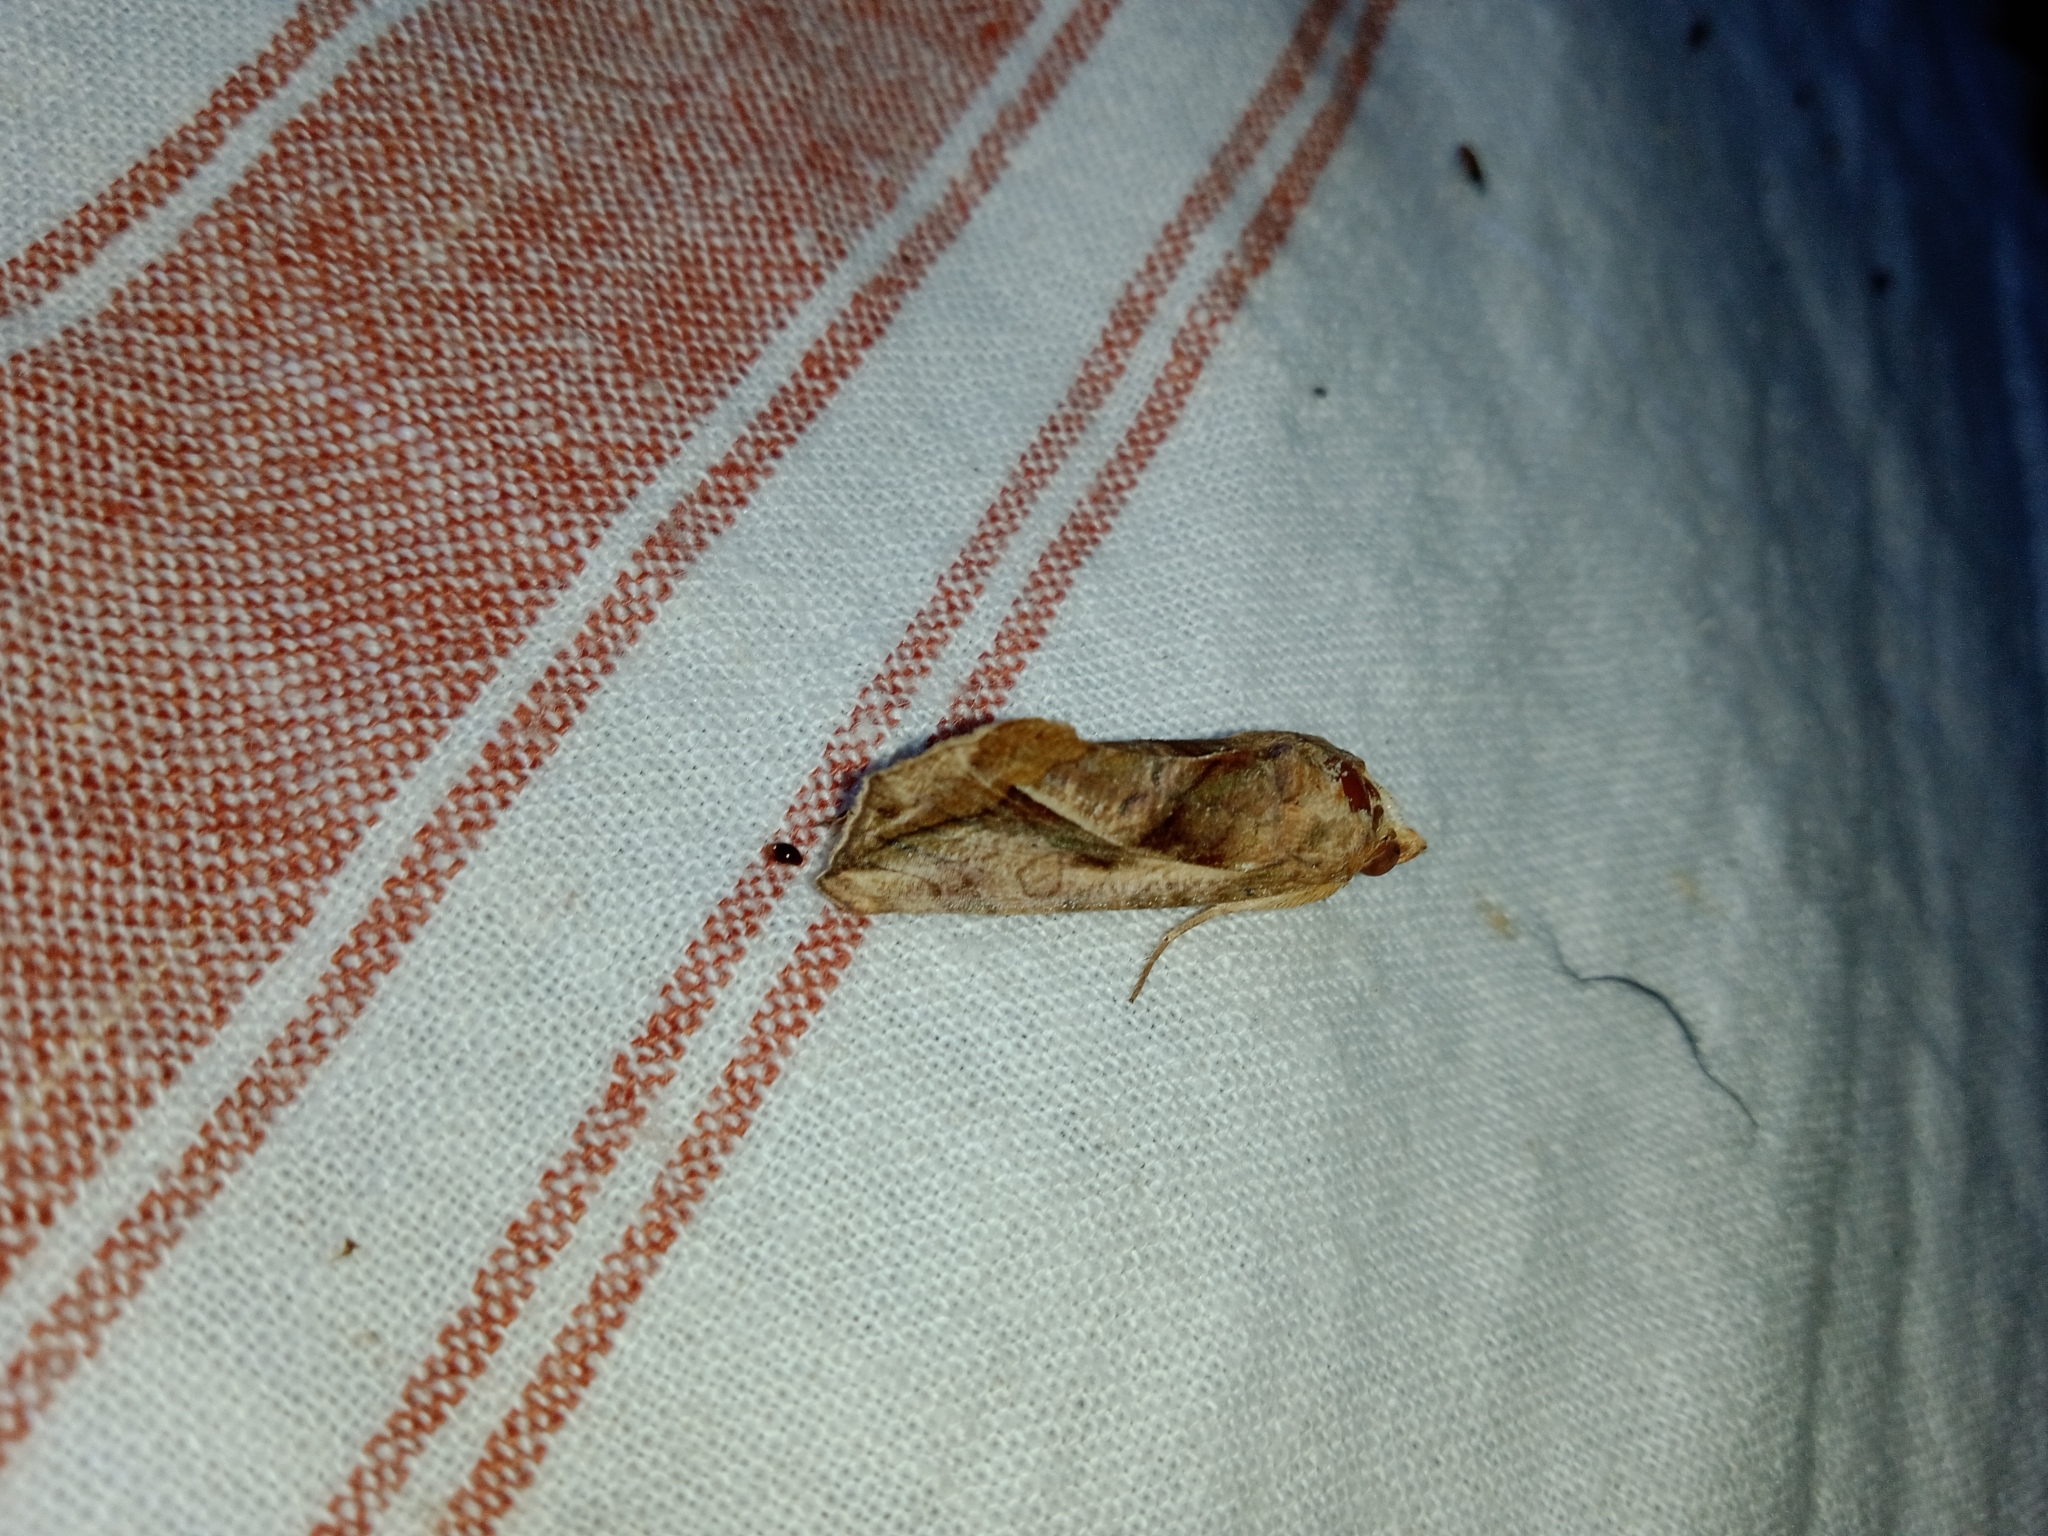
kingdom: Animalia
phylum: Arthropoda
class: Insecta
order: Lepidoptera
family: Erebidae
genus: Oraesia
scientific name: Oraesia emarginata
